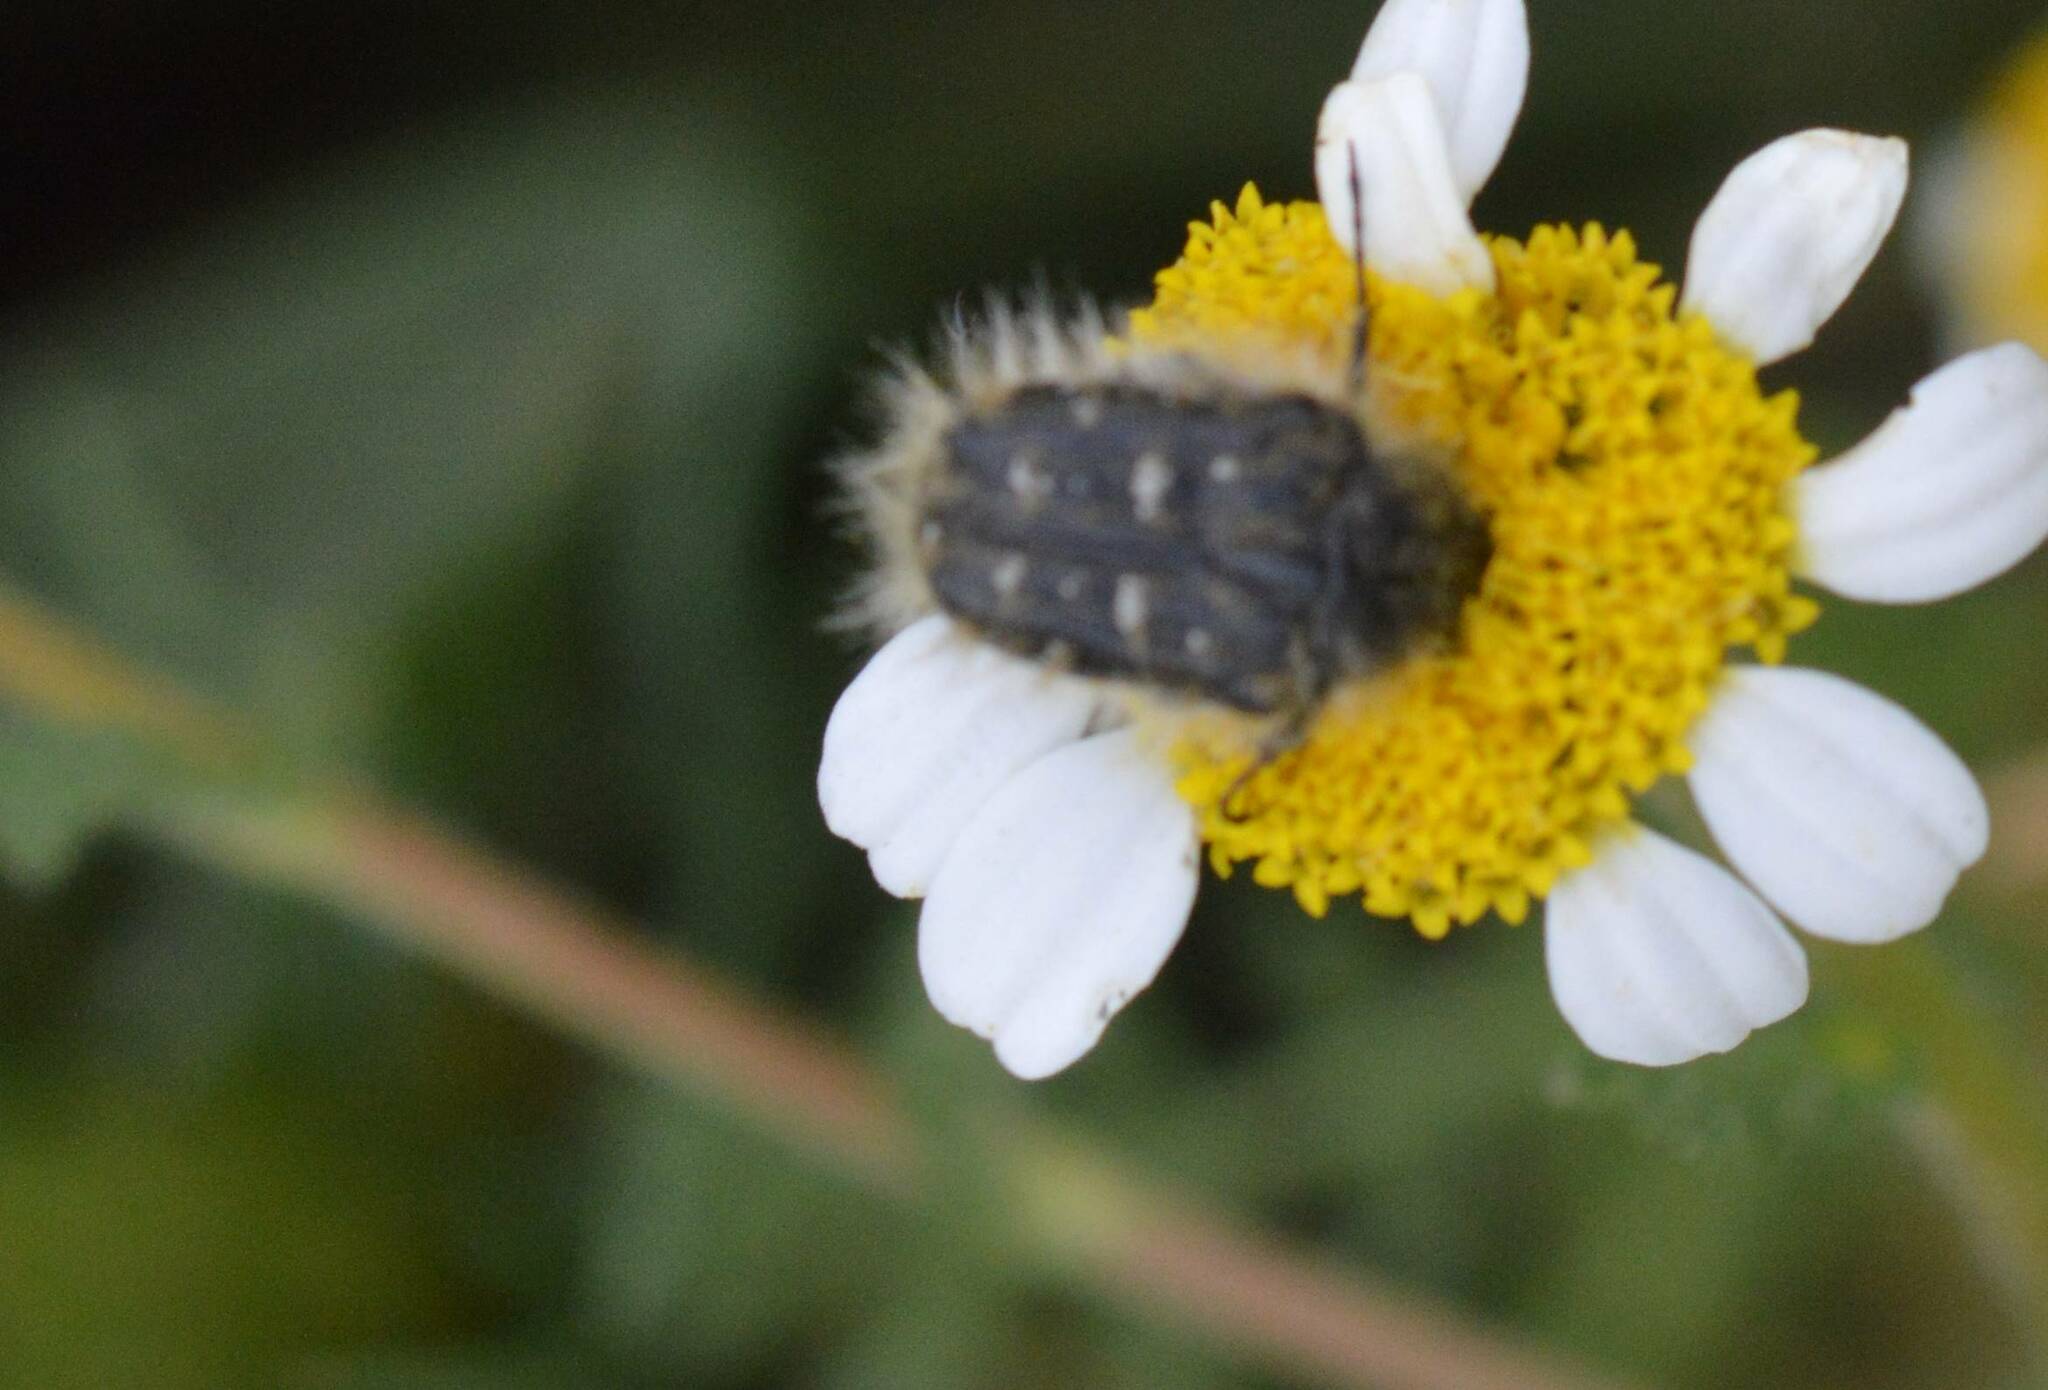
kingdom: Animalia
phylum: Arthropoda
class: Insecta
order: Coleoptera
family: Scarabaeidae
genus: Tropinota
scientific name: Tropinota squalida
